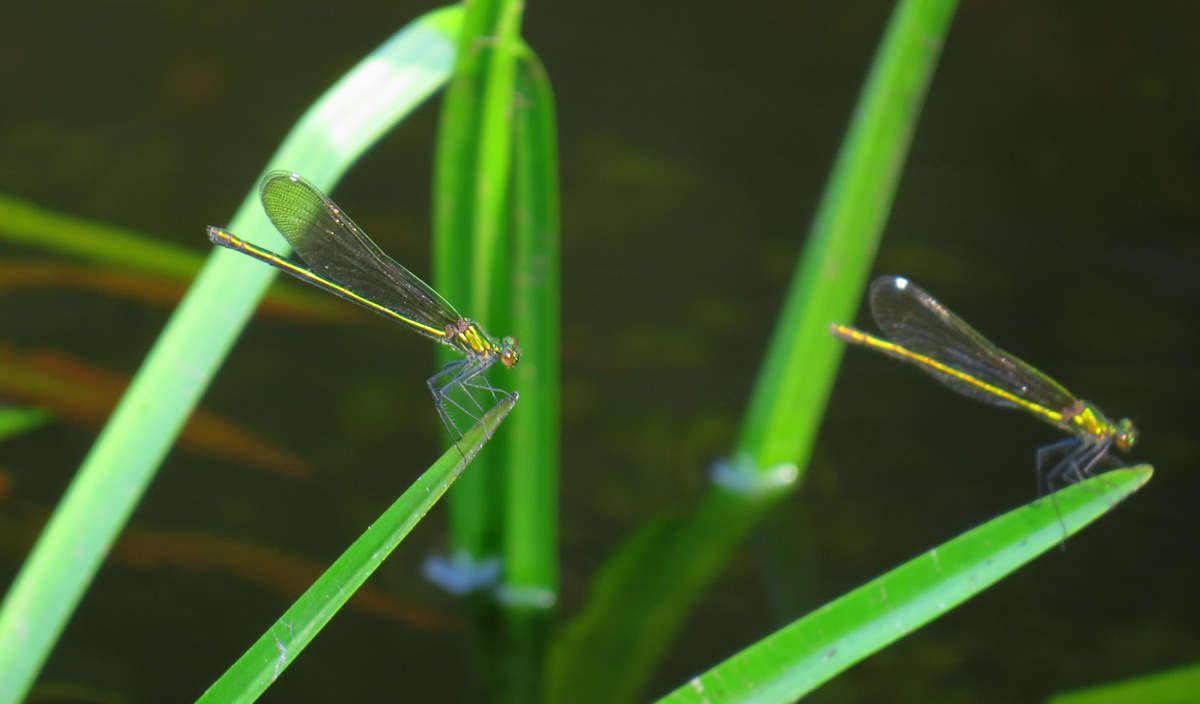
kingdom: Animalia
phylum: Arthropoda
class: Insecta
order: Odonata
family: Calopterygidae
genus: Calopteryx
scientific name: Calopteryx dimidiata
